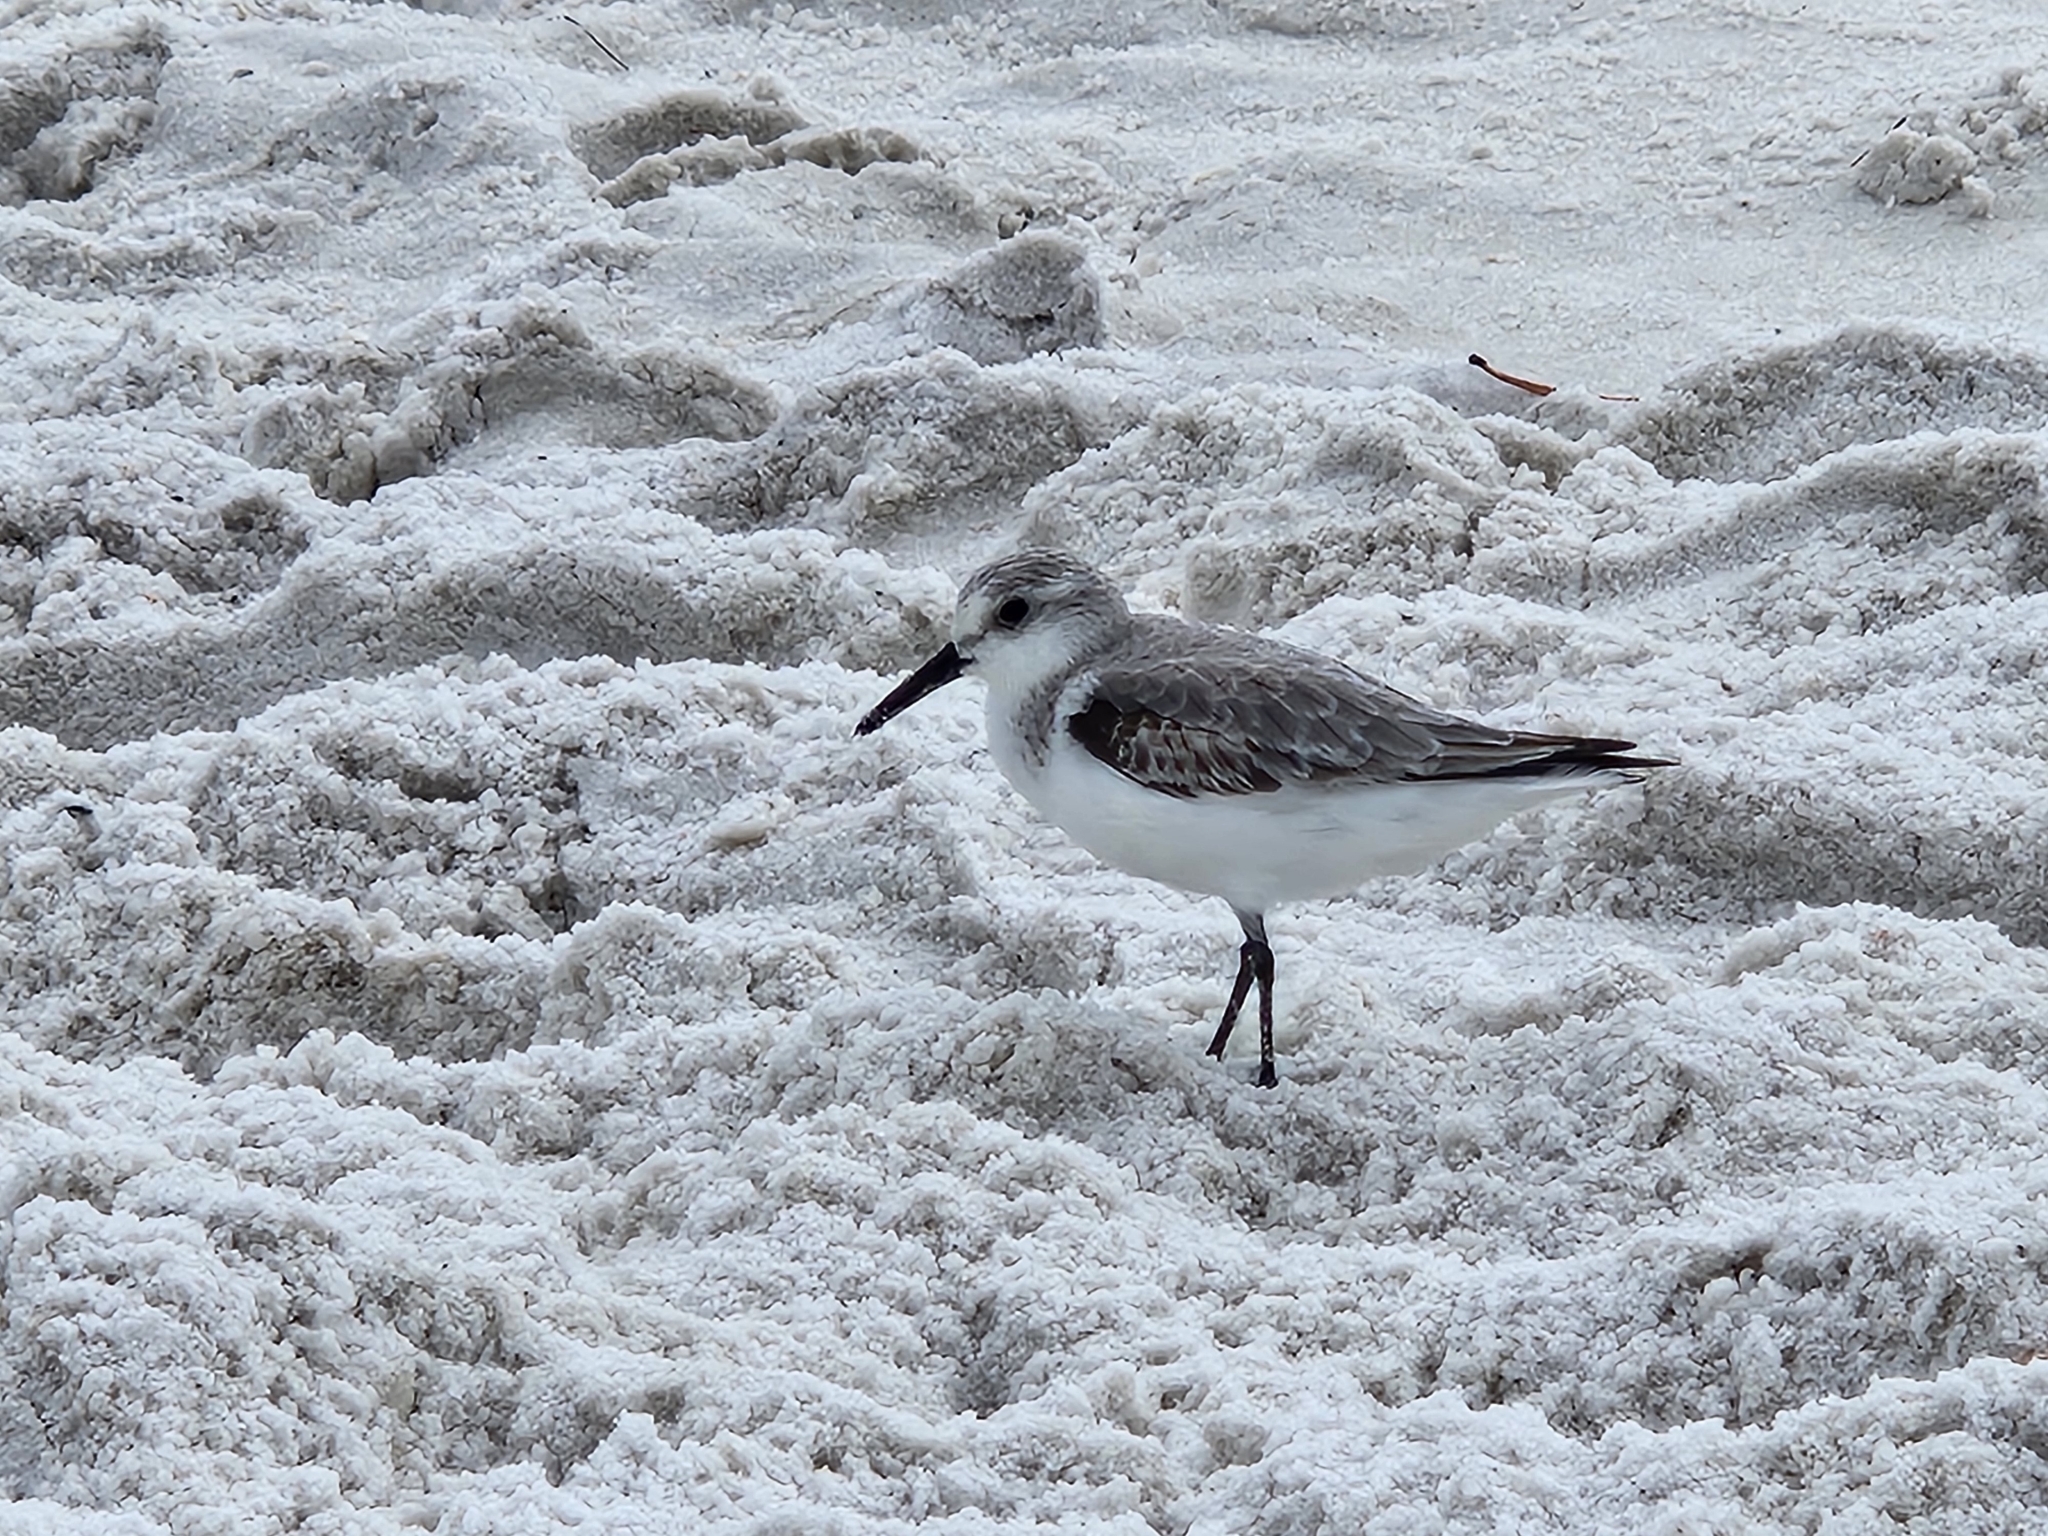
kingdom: Animalia
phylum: Chordata
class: Aves
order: Charadriiformes
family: Scolopacidae
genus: Calidris
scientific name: Calidris alba
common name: Sanderling
